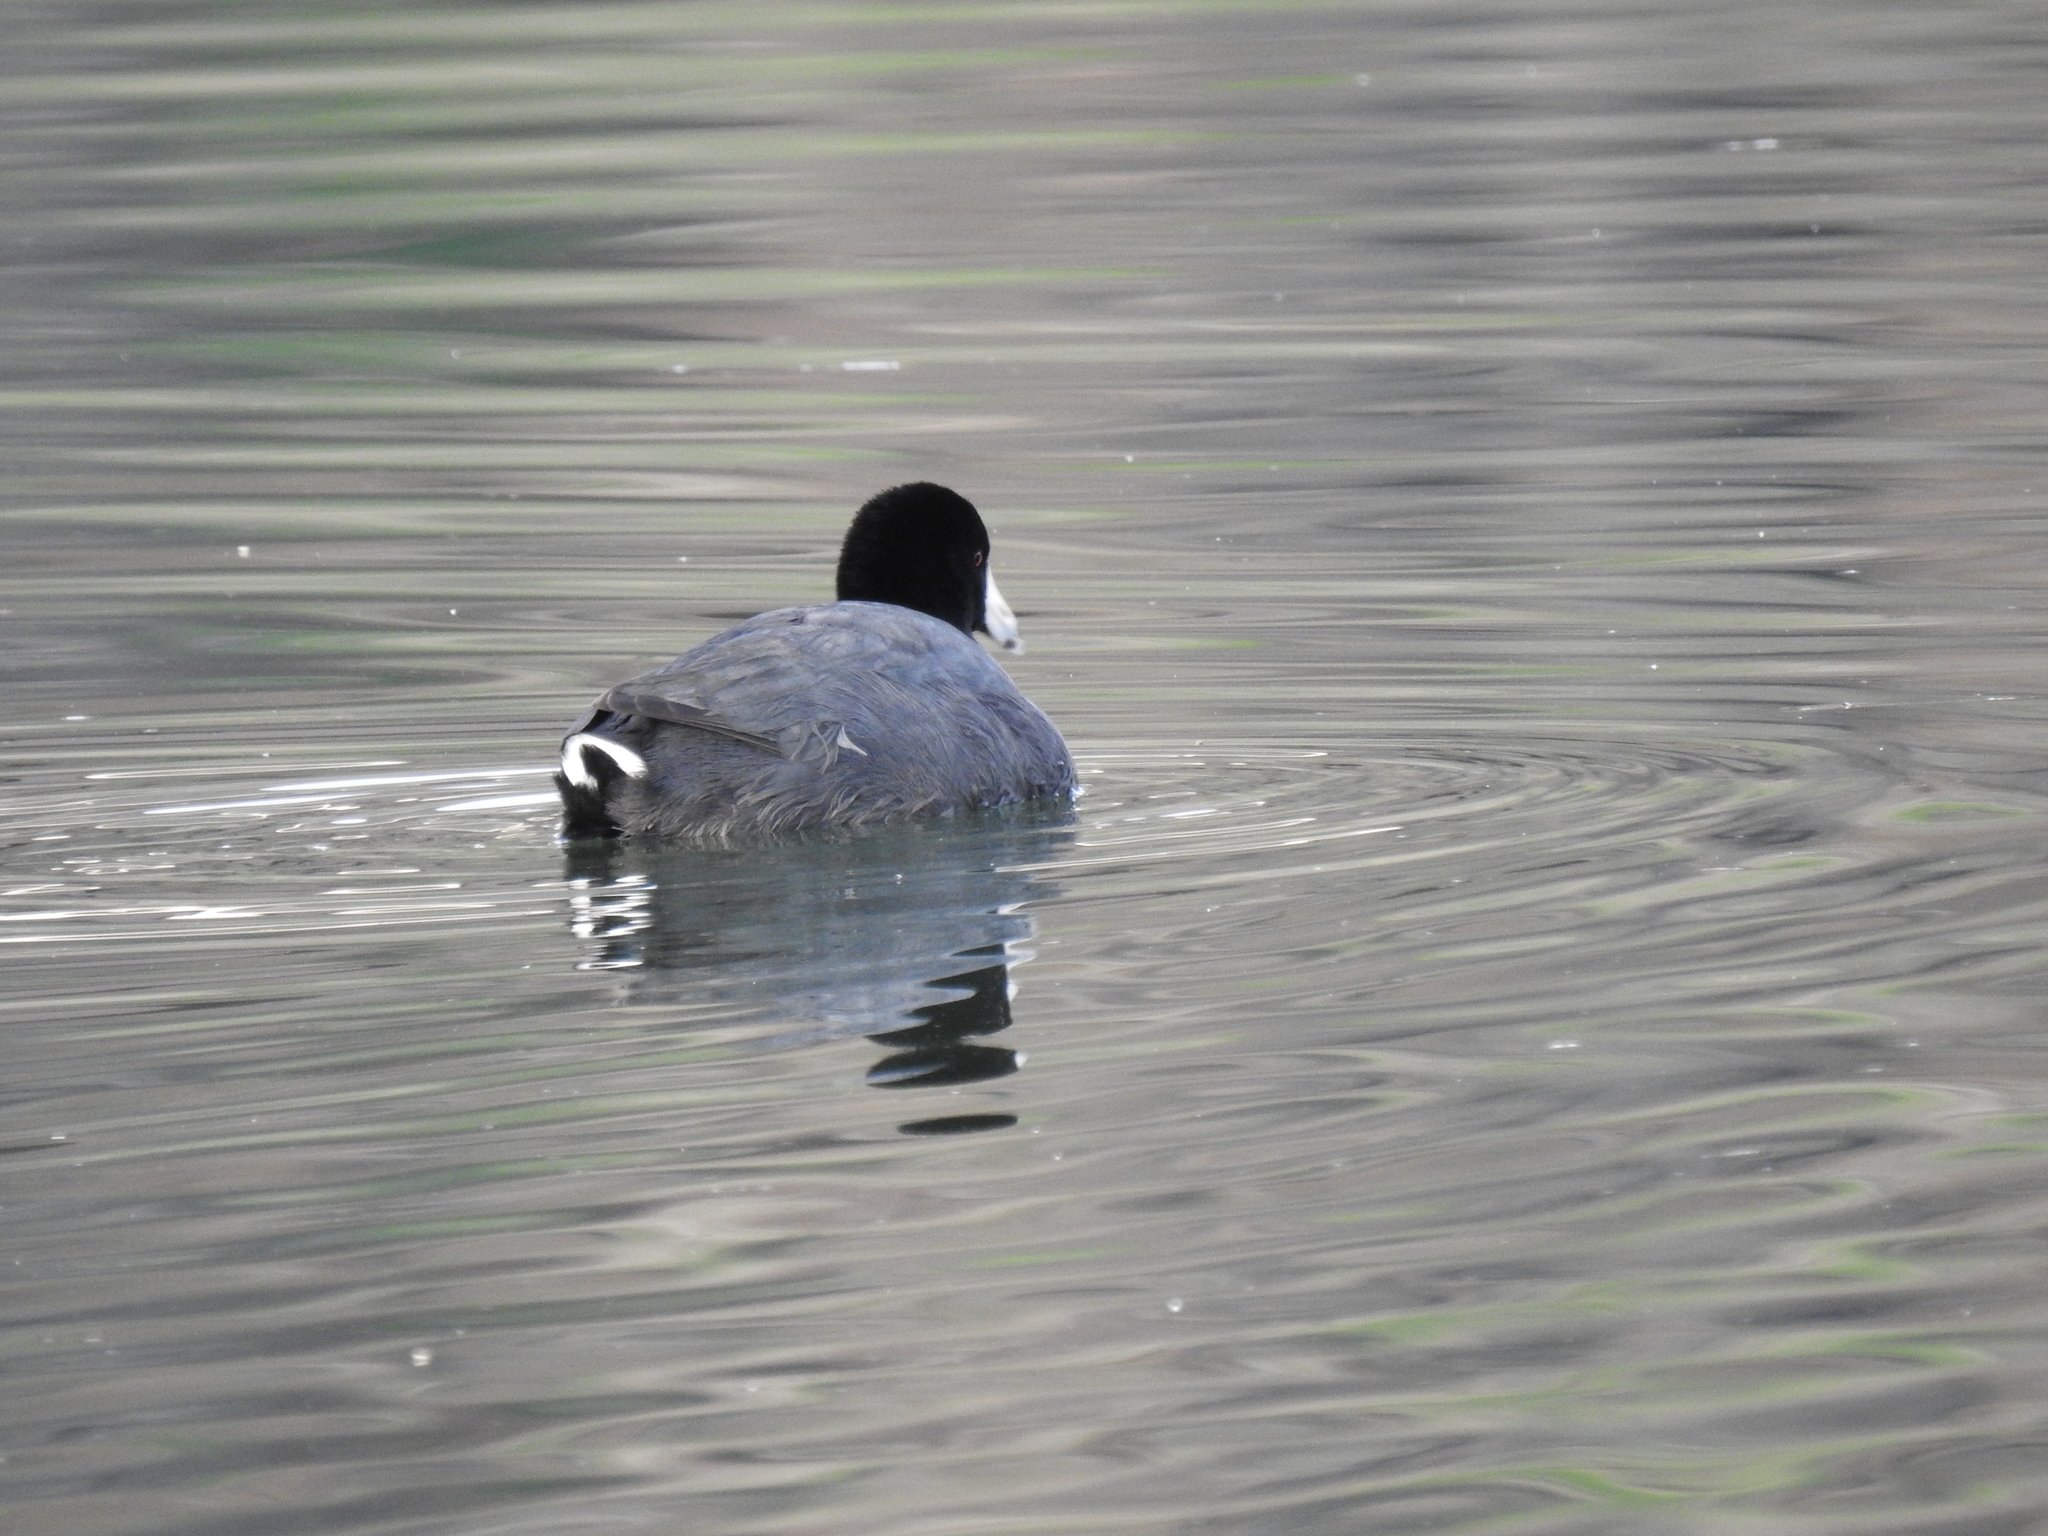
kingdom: Animalia
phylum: Chordata
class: Aves
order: Gruiformes
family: Rallidae
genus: Fulica
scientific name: Fulica americana
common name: American coot
